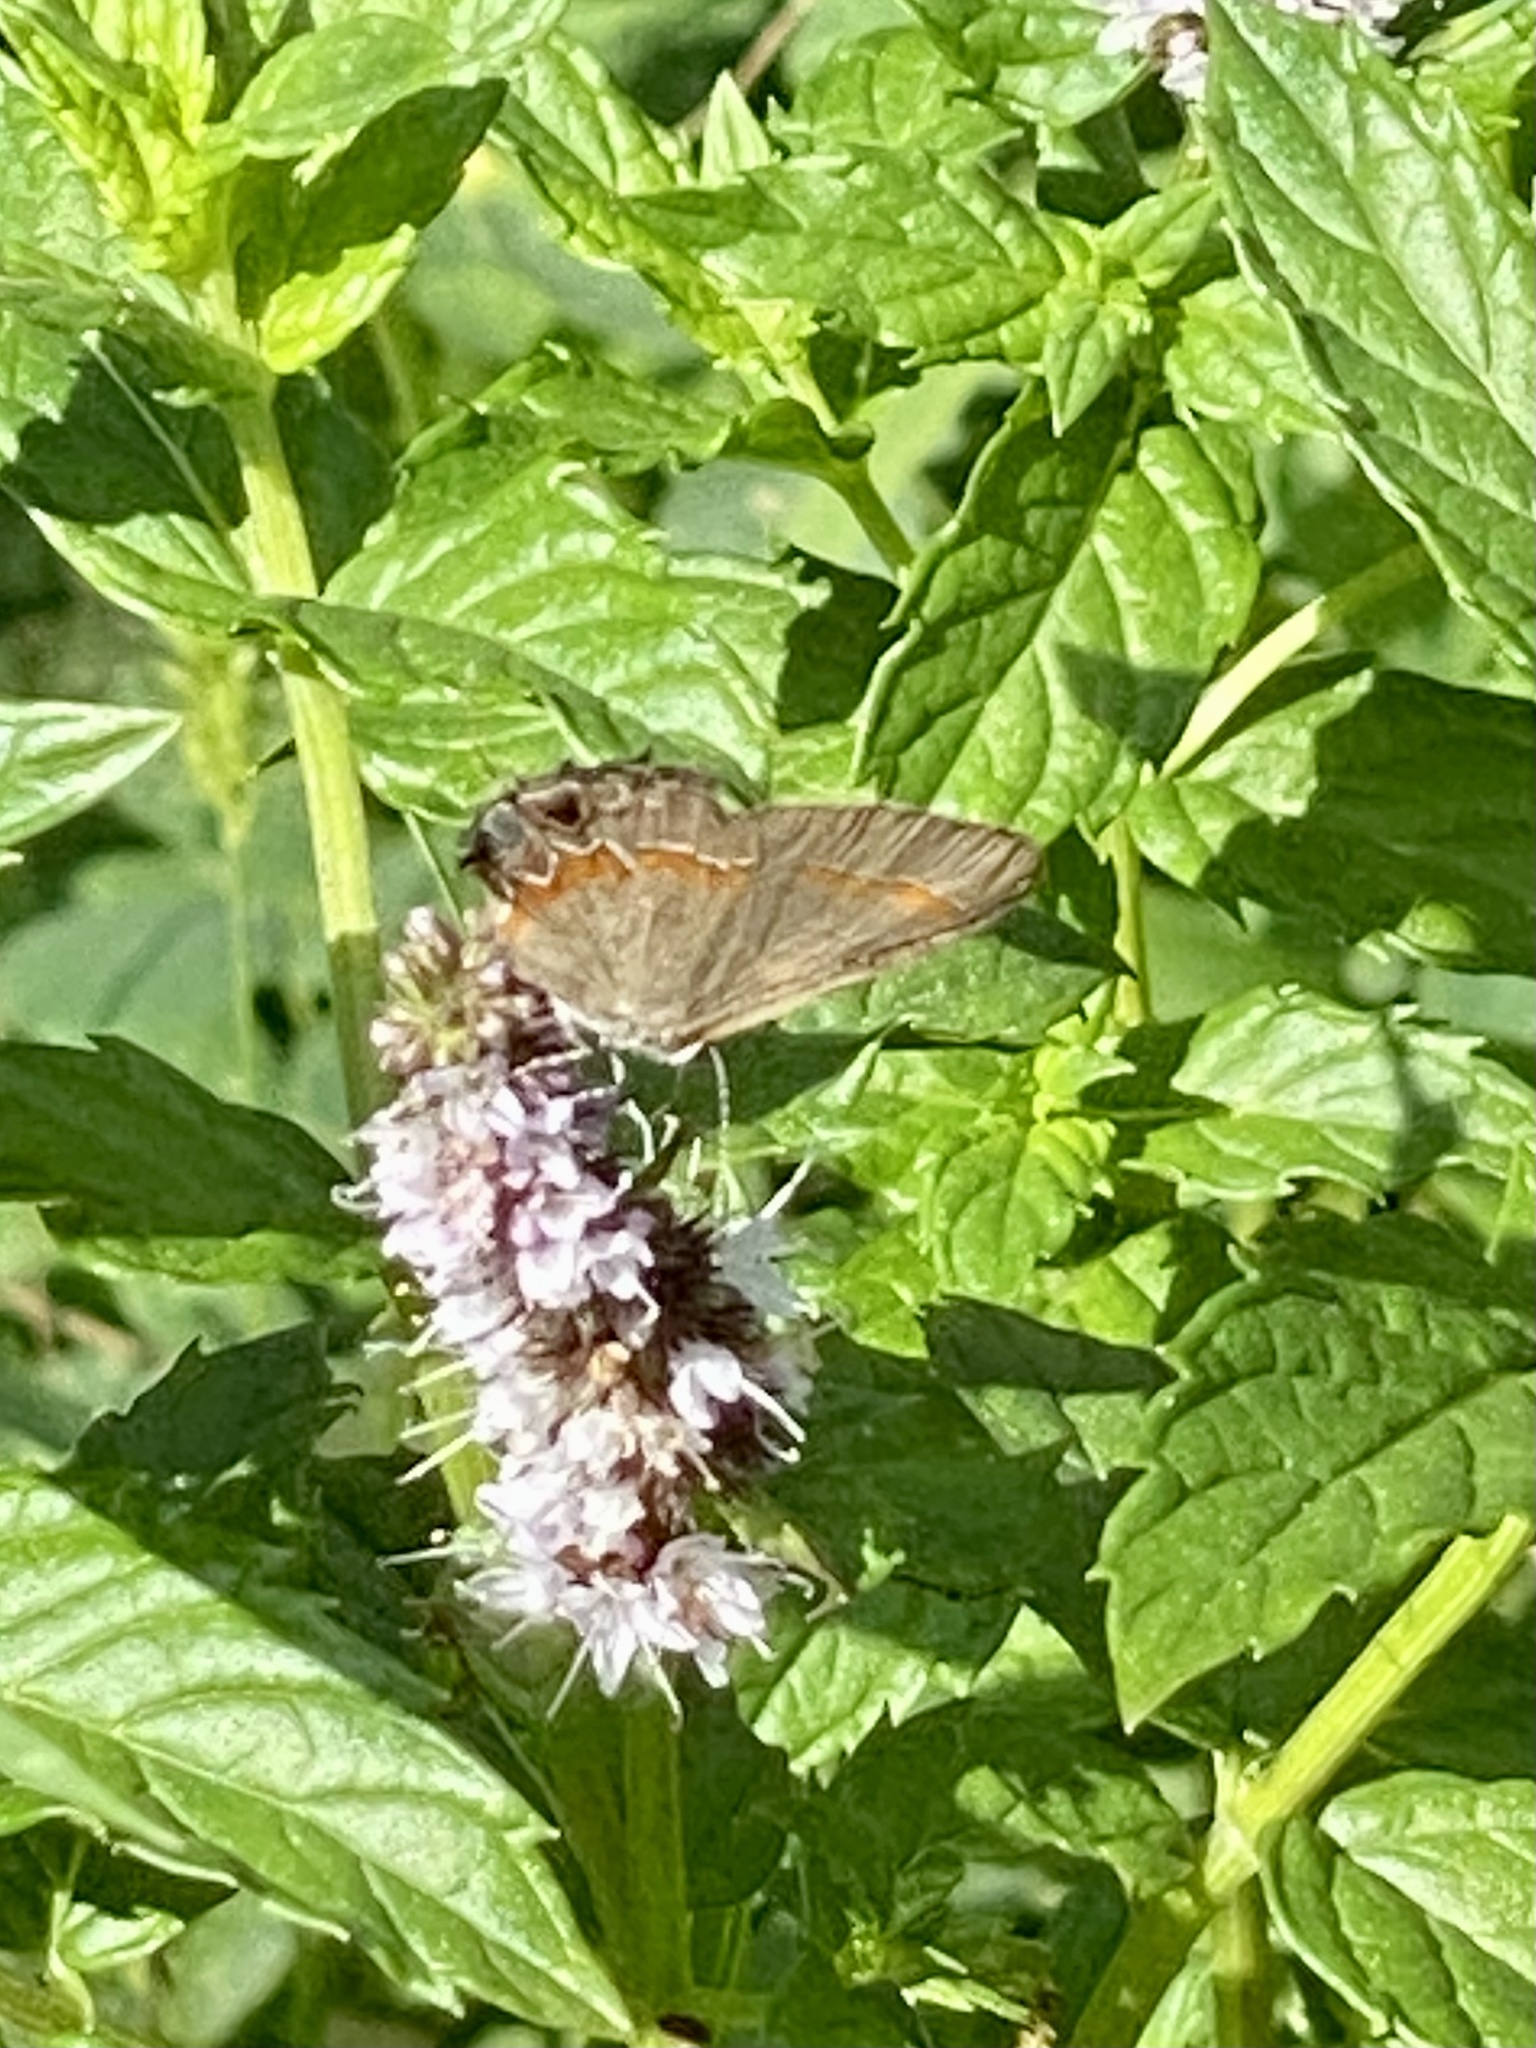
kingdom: Animalia
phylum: Arthropoda
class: Insecta
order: Lepidoptera
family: Lycaenidae
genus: Calycopis
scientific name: Calycopis cecrops
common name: Red-banded hairstreak
